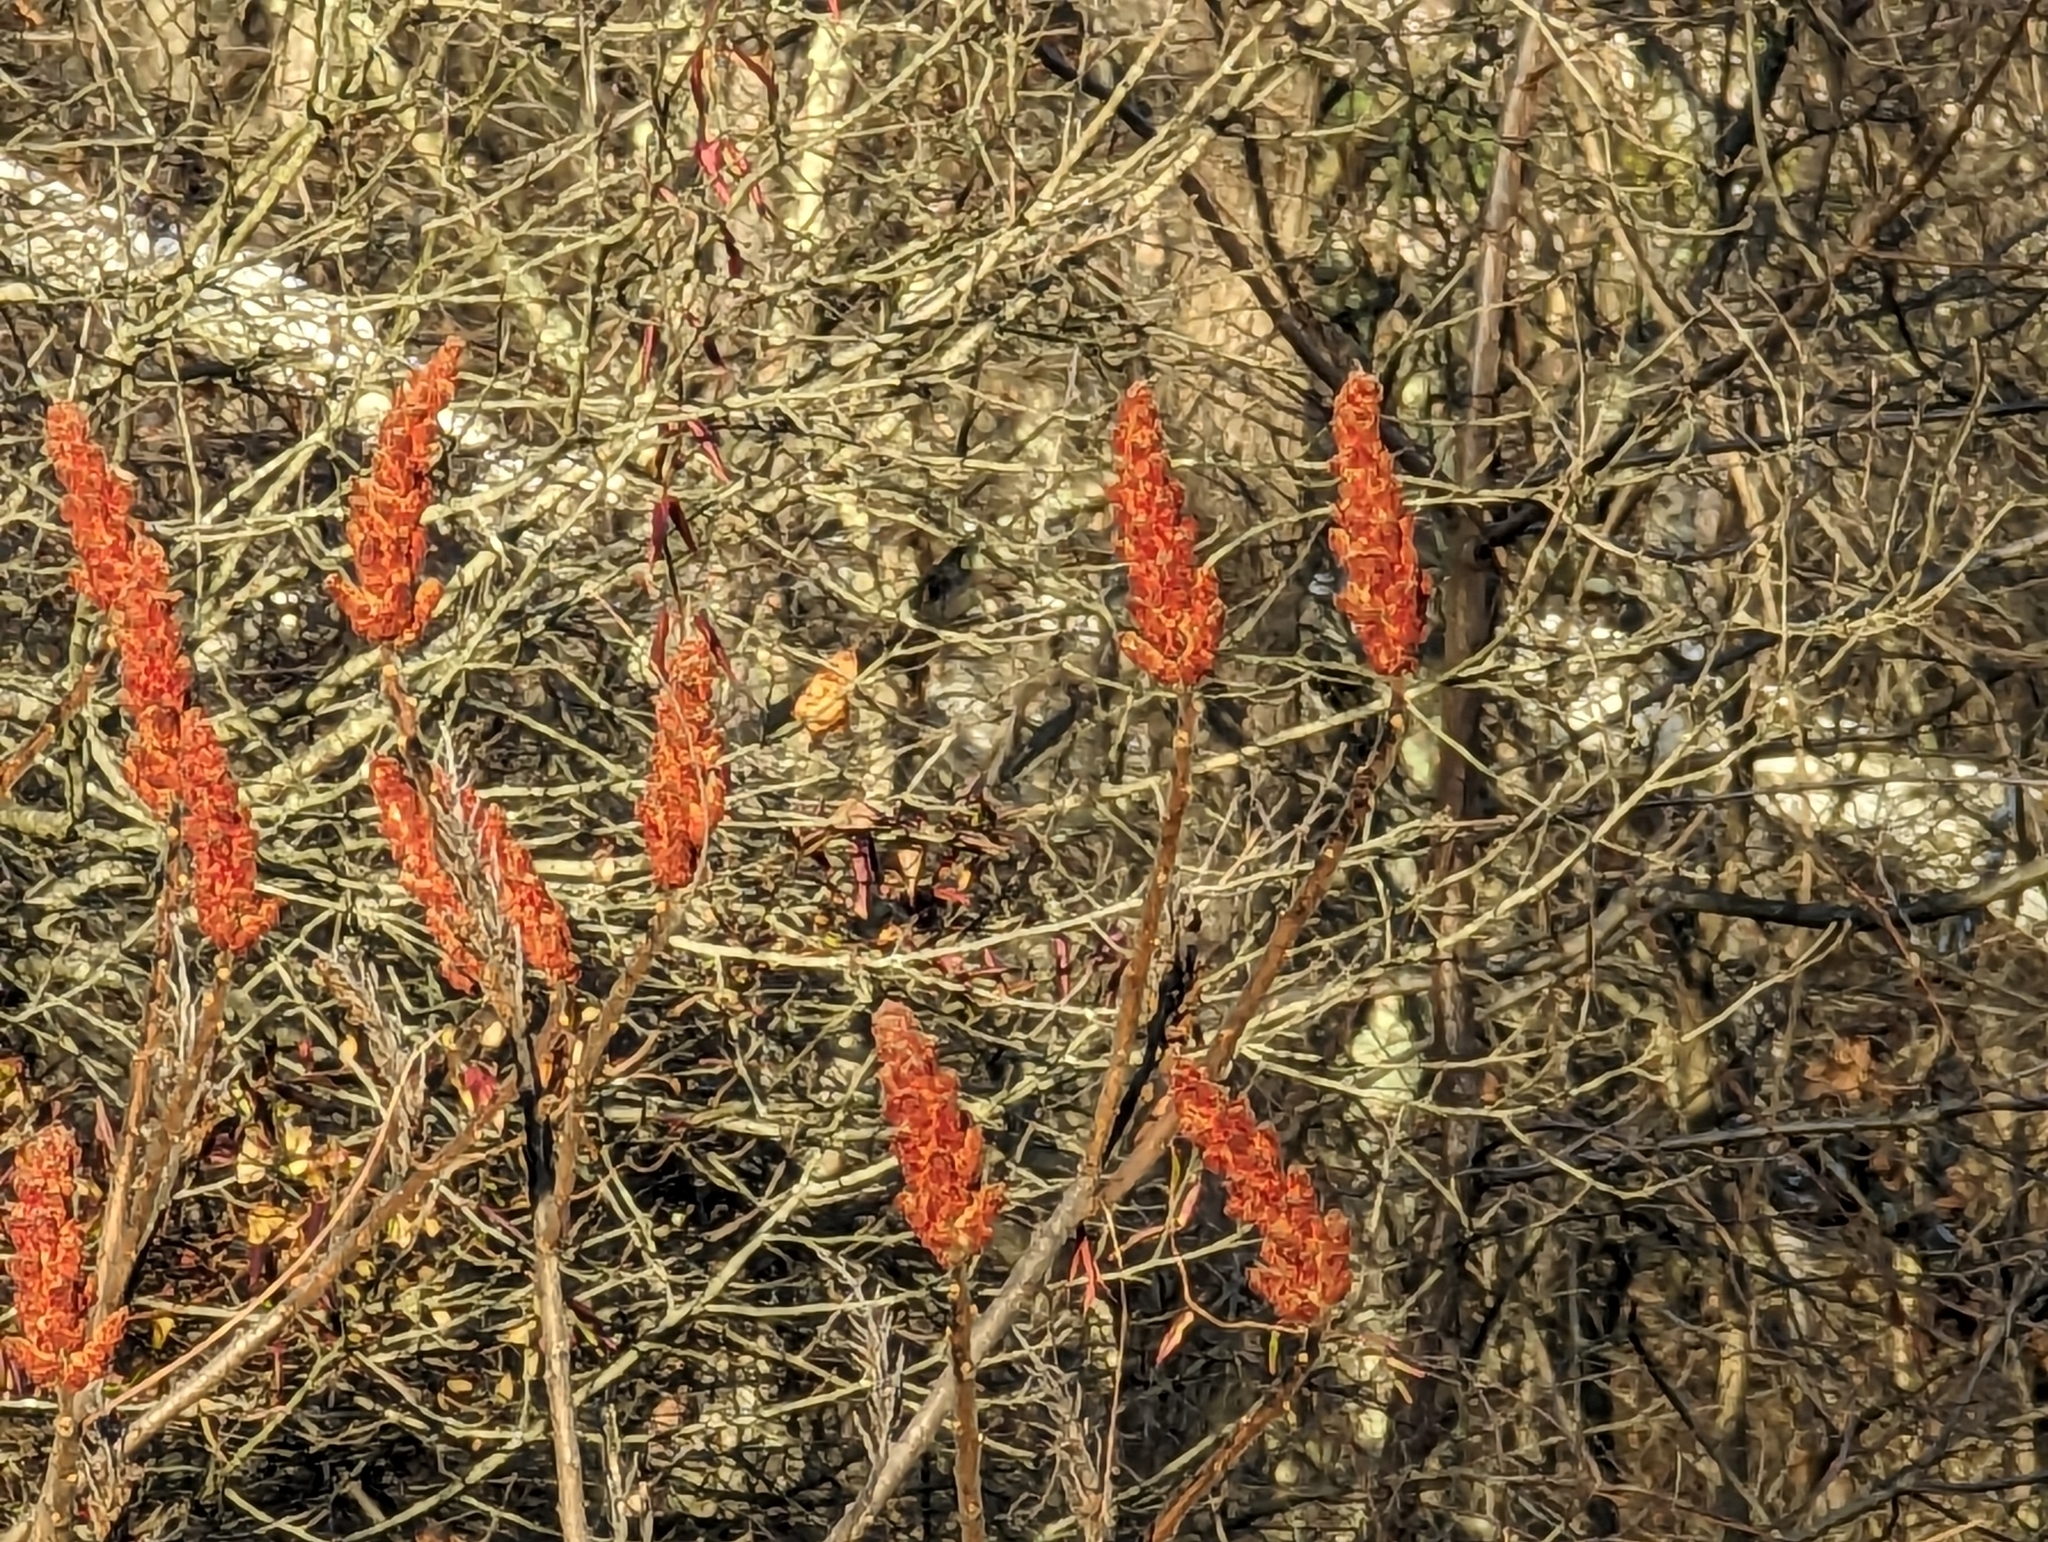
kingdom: Plantae
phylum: Tracheophyta
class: Magnoliopsida
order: Sapindales
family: Anacardiaceae
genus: Rhus
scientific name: Rhus typhina
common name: Staghorn sumac
